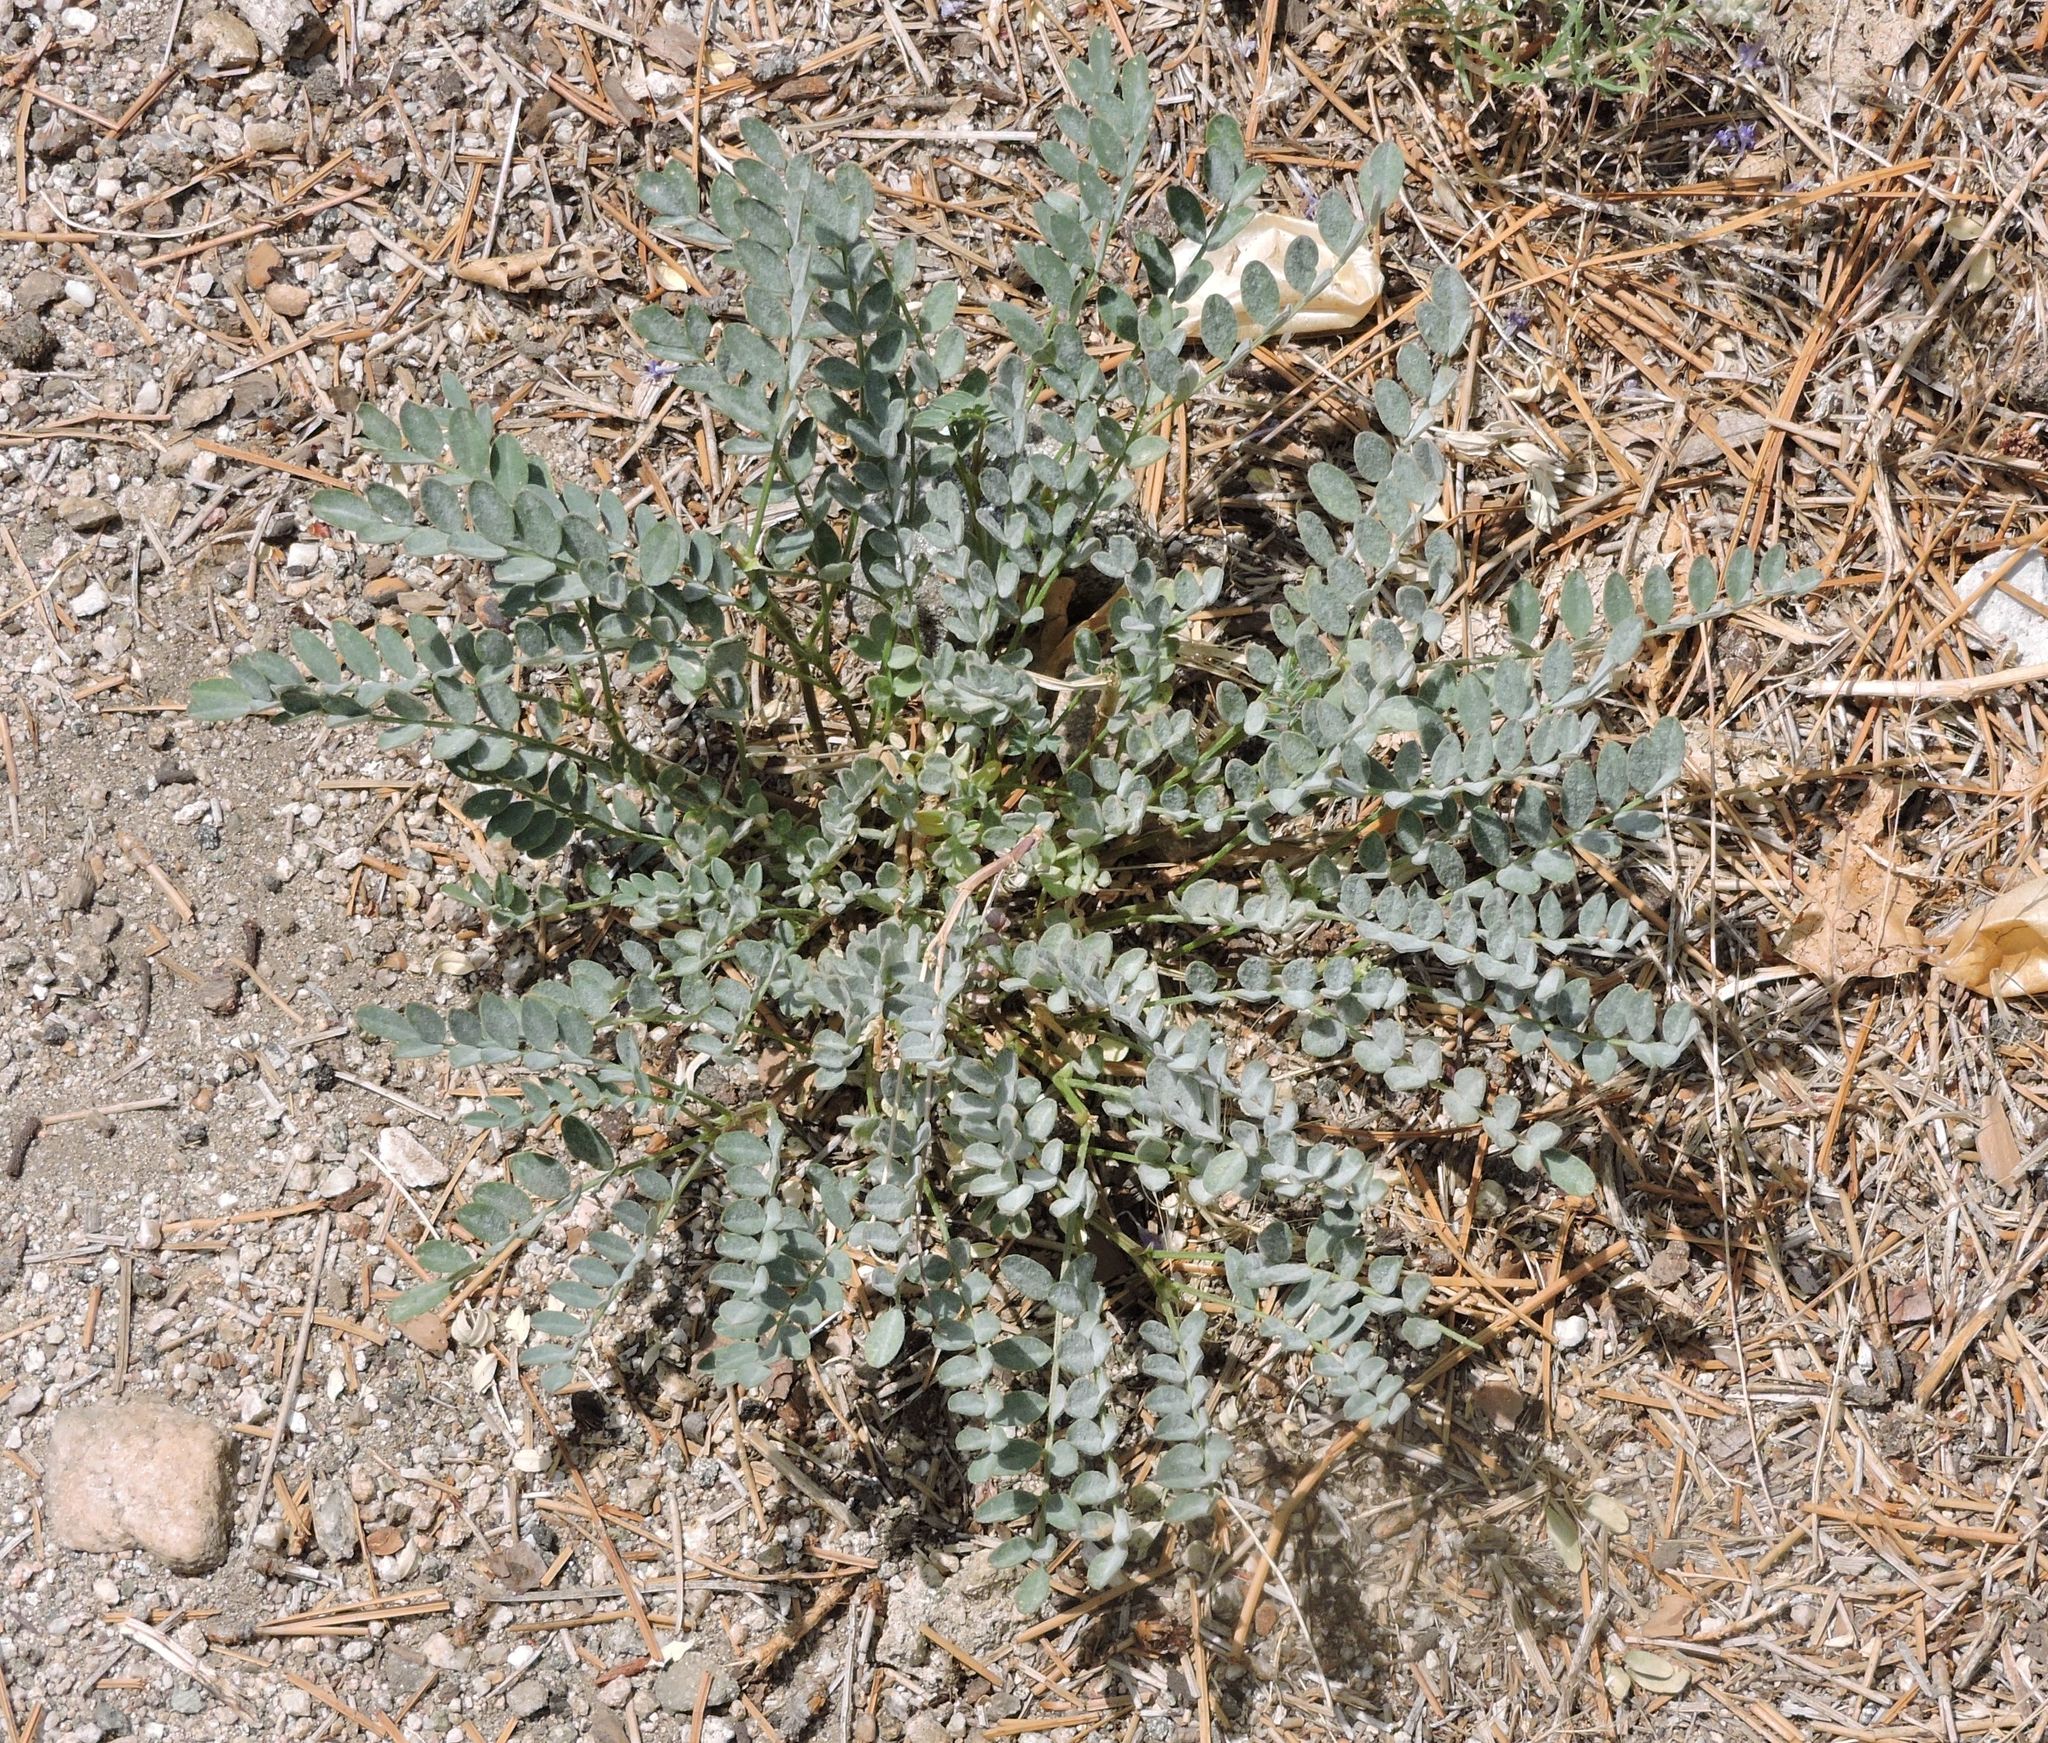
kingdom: Plantae
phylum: Tracheophyta
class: Magnoliopsida
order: Fabales
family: Fabaceae
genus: Astragalus
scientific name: Astragalus lentiginosus
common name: Freckled milkvetch
